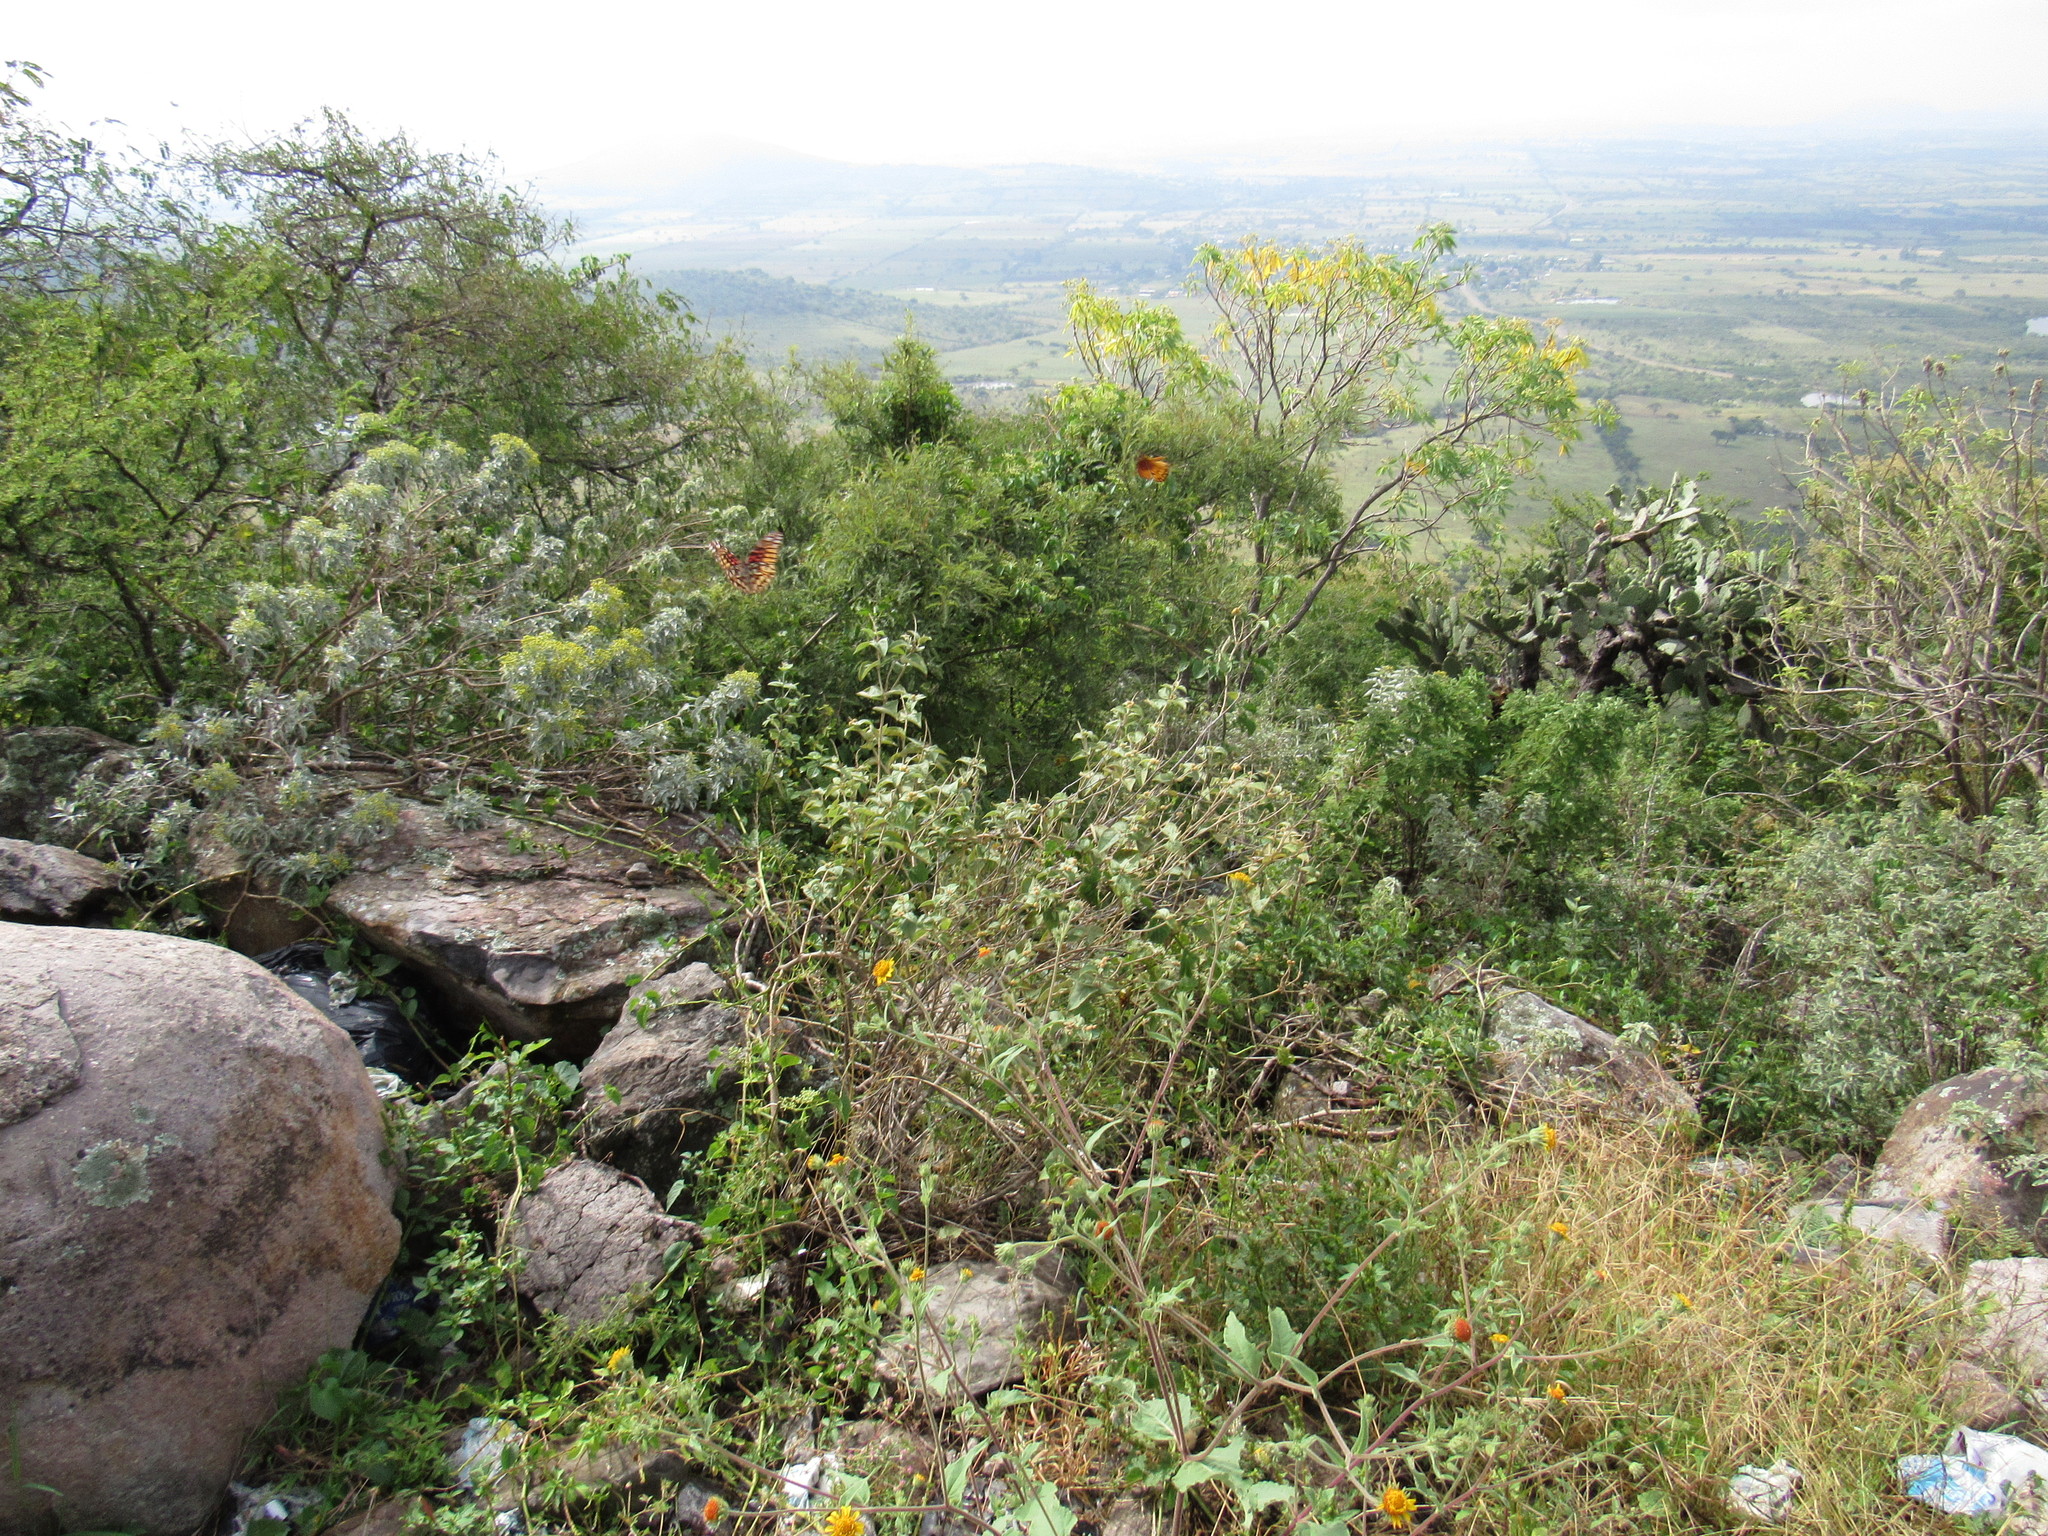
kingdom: Animalia
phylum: Arthropoda
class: Insecta
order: Lepidoptera
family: Nymphalidae
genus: Dione
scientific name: Dione moneta
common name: Mexican silverspot
